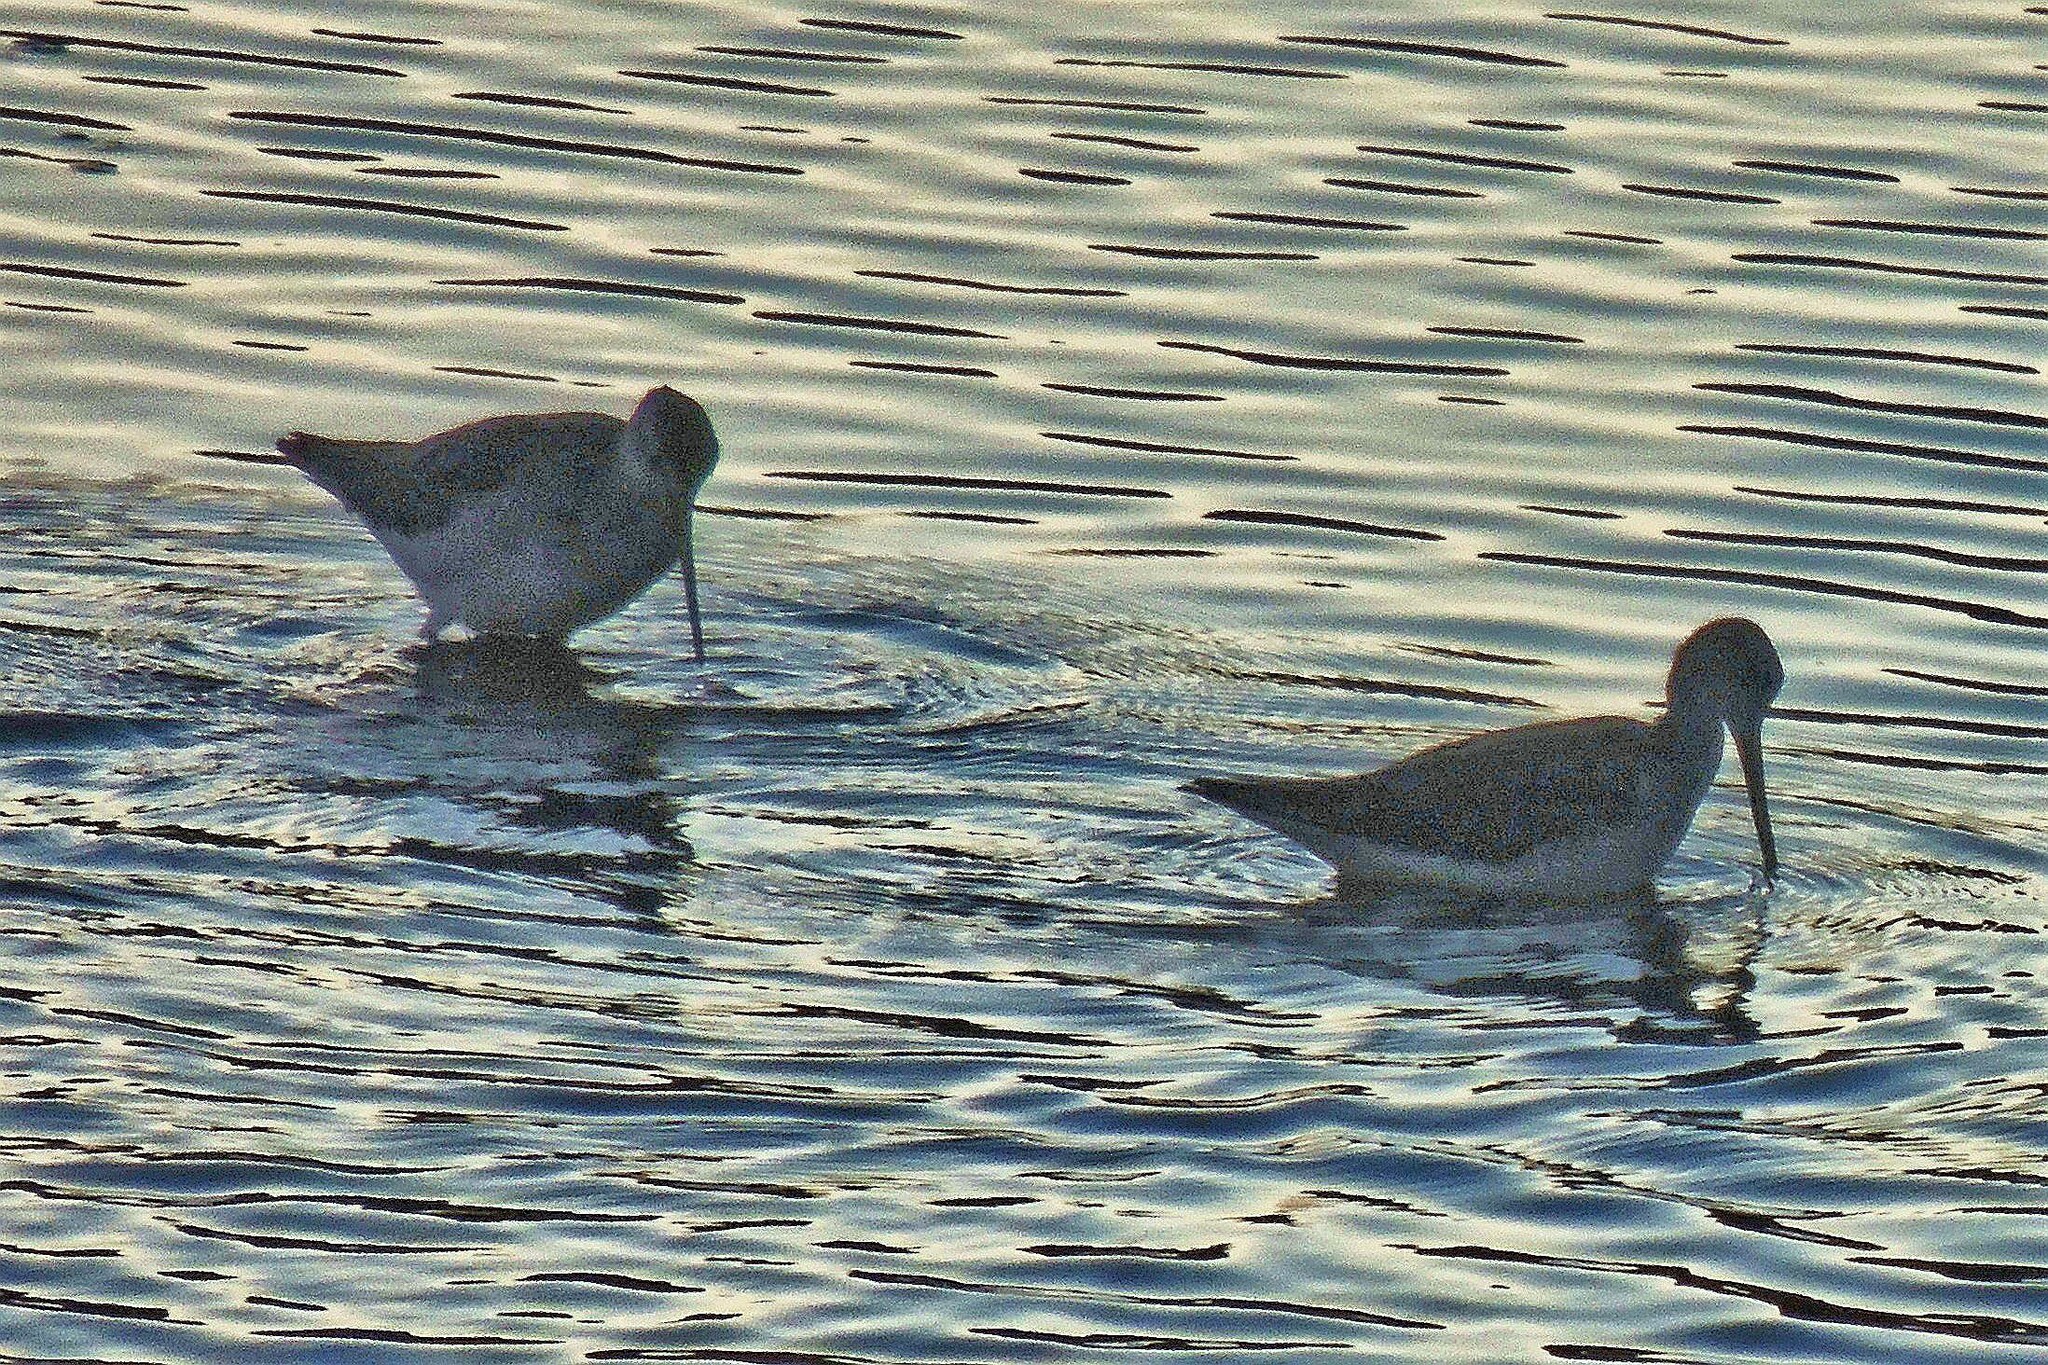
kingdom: Animalia
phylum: Chordata
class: Aves
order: Charadriiformes
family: Scolopacidae
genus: Tringa
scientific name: Tringa melanoleuca
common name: Greater yellowlegs
